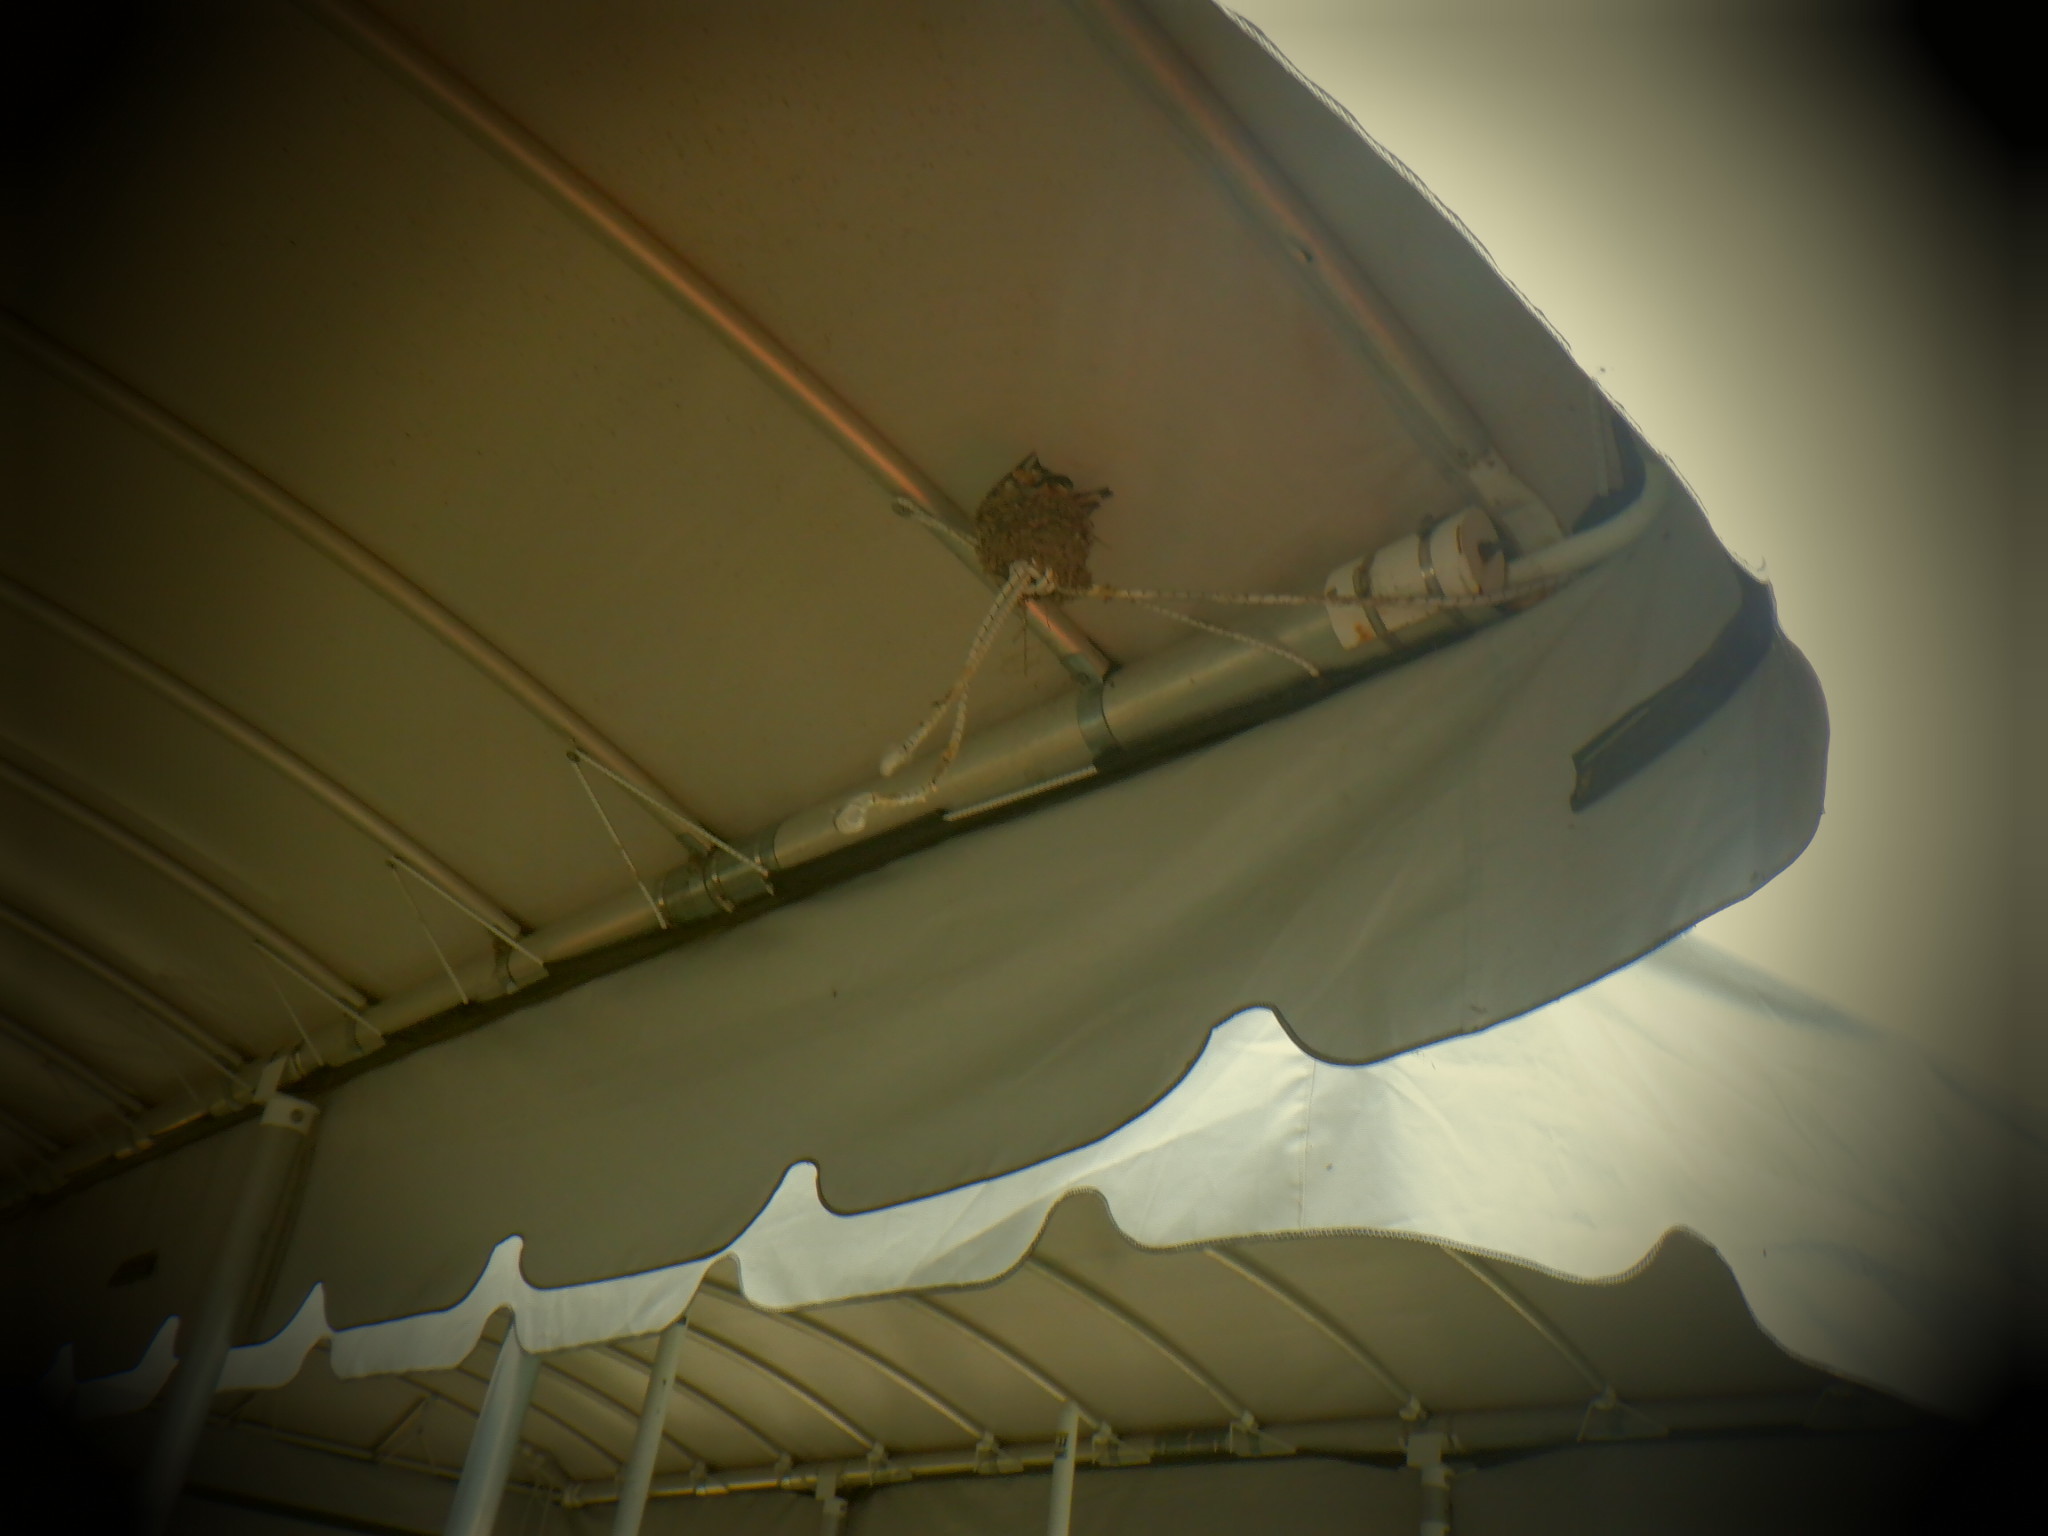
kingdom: Animalia
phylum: Chordata
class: Aves
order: Passeriformes
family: Hirundinidae
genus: Hirundo
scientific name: Hirundo rustica
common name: Barn swallow
